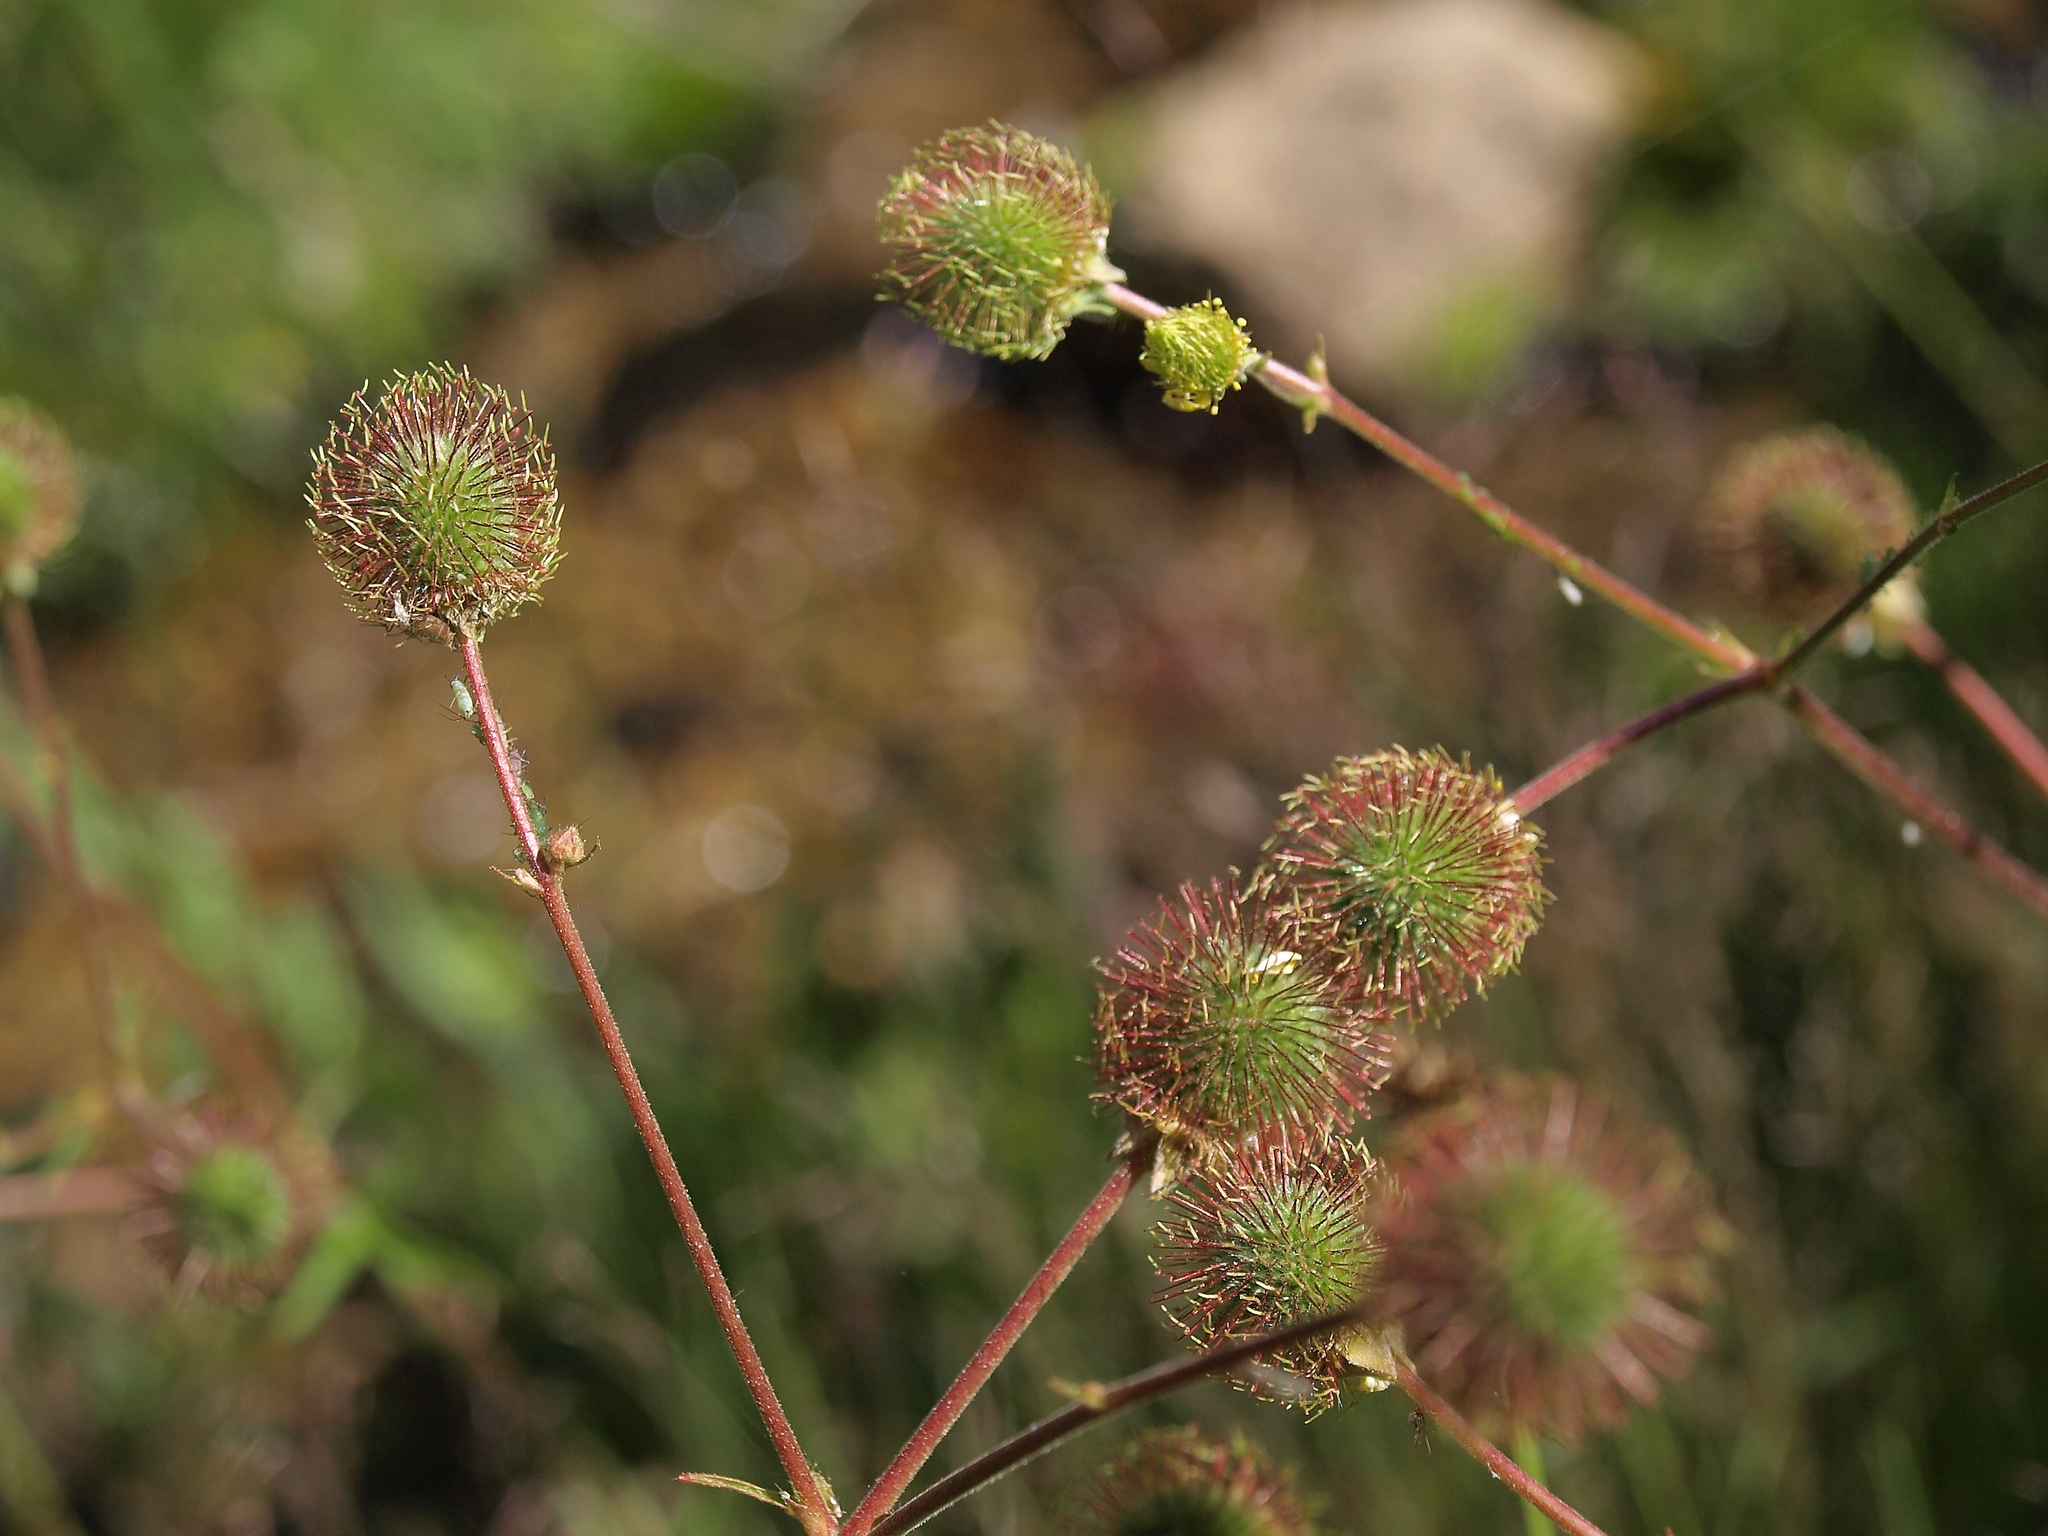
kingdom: Plantae
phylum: Tracheophyta
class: Magnoliopsida
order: Rosales
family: Rosaceae
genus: Geum
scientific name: Geum macrophyllum
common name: Large-leaved avens
